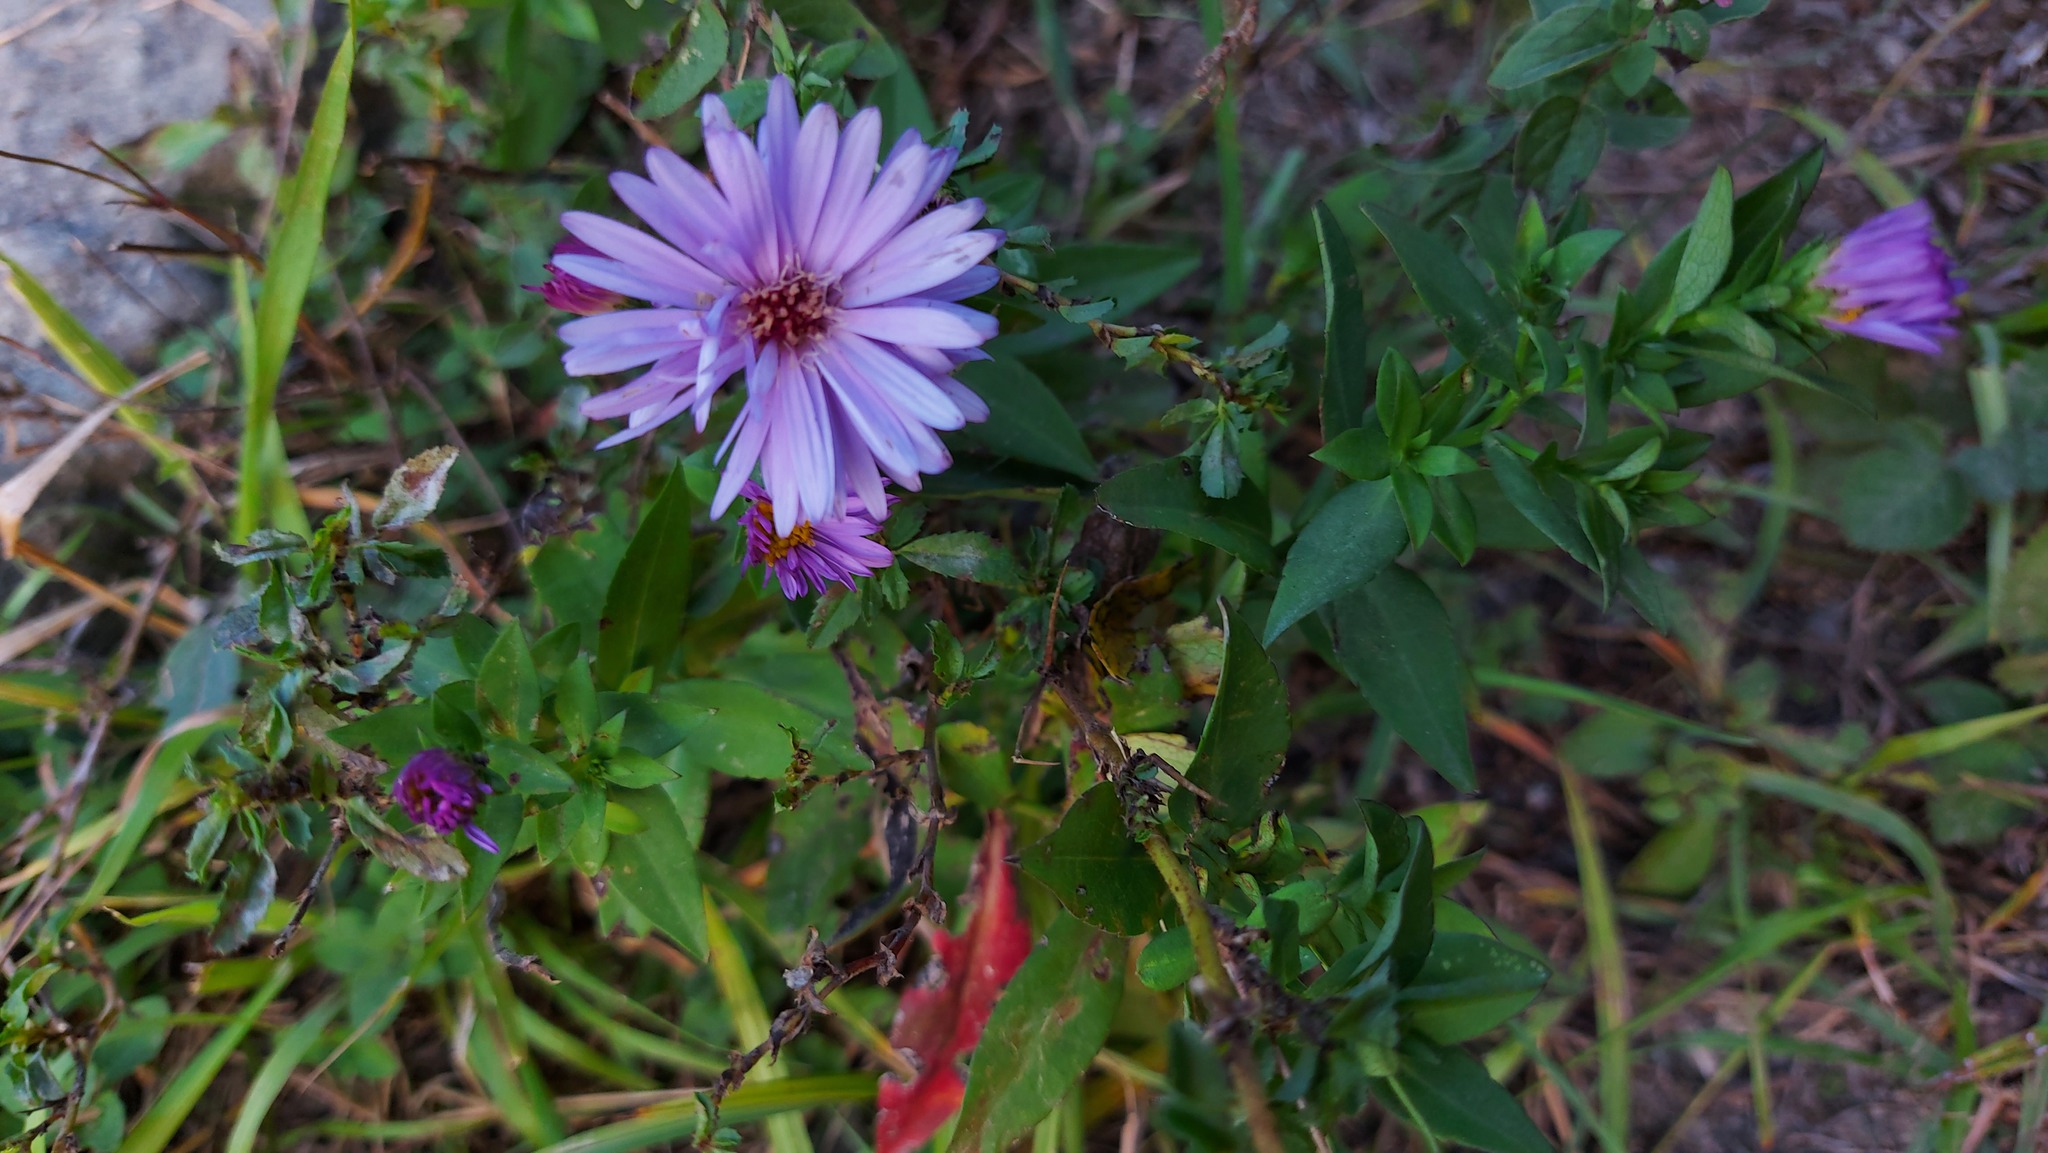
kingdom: Plantae
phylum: Tracheophyta
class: Magnoliopsida
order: Asterales
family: Asteraceae
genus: Symphyotrichum
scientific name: Symphyotrichum novi-belgii
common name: Michaelmas daisy
